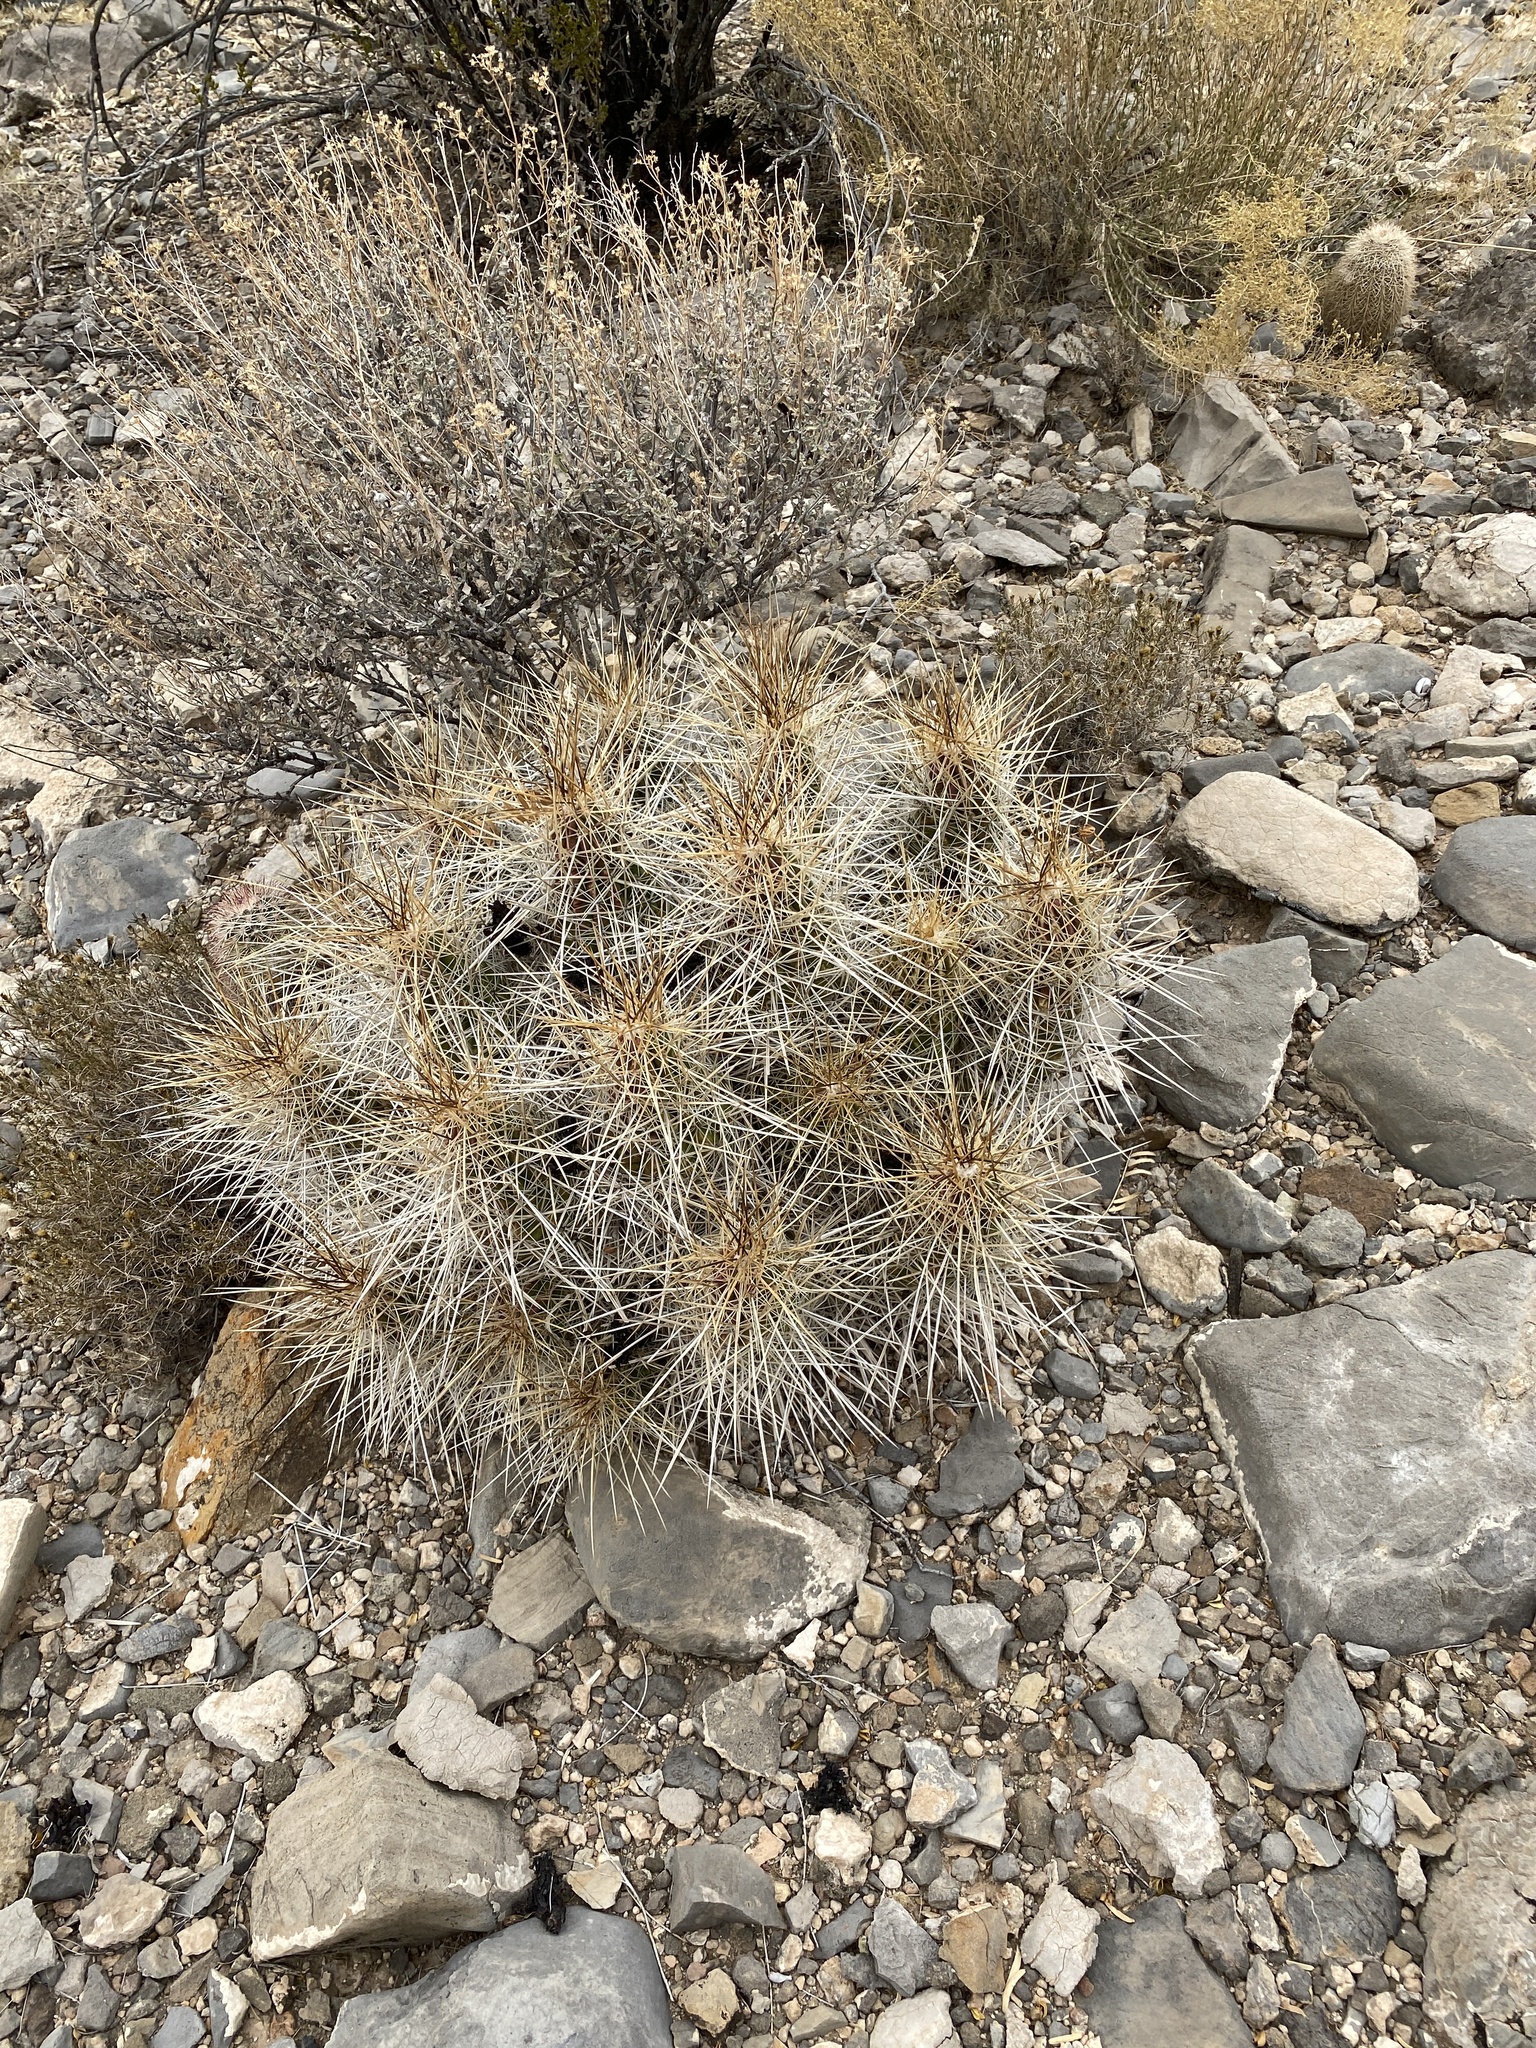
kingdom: Plantae
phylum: Tracheophyta
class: Magnoliopsida
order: Caryophyllales
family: Cactaceae
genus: Echinocereus
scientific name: Echinocereus stramineus
